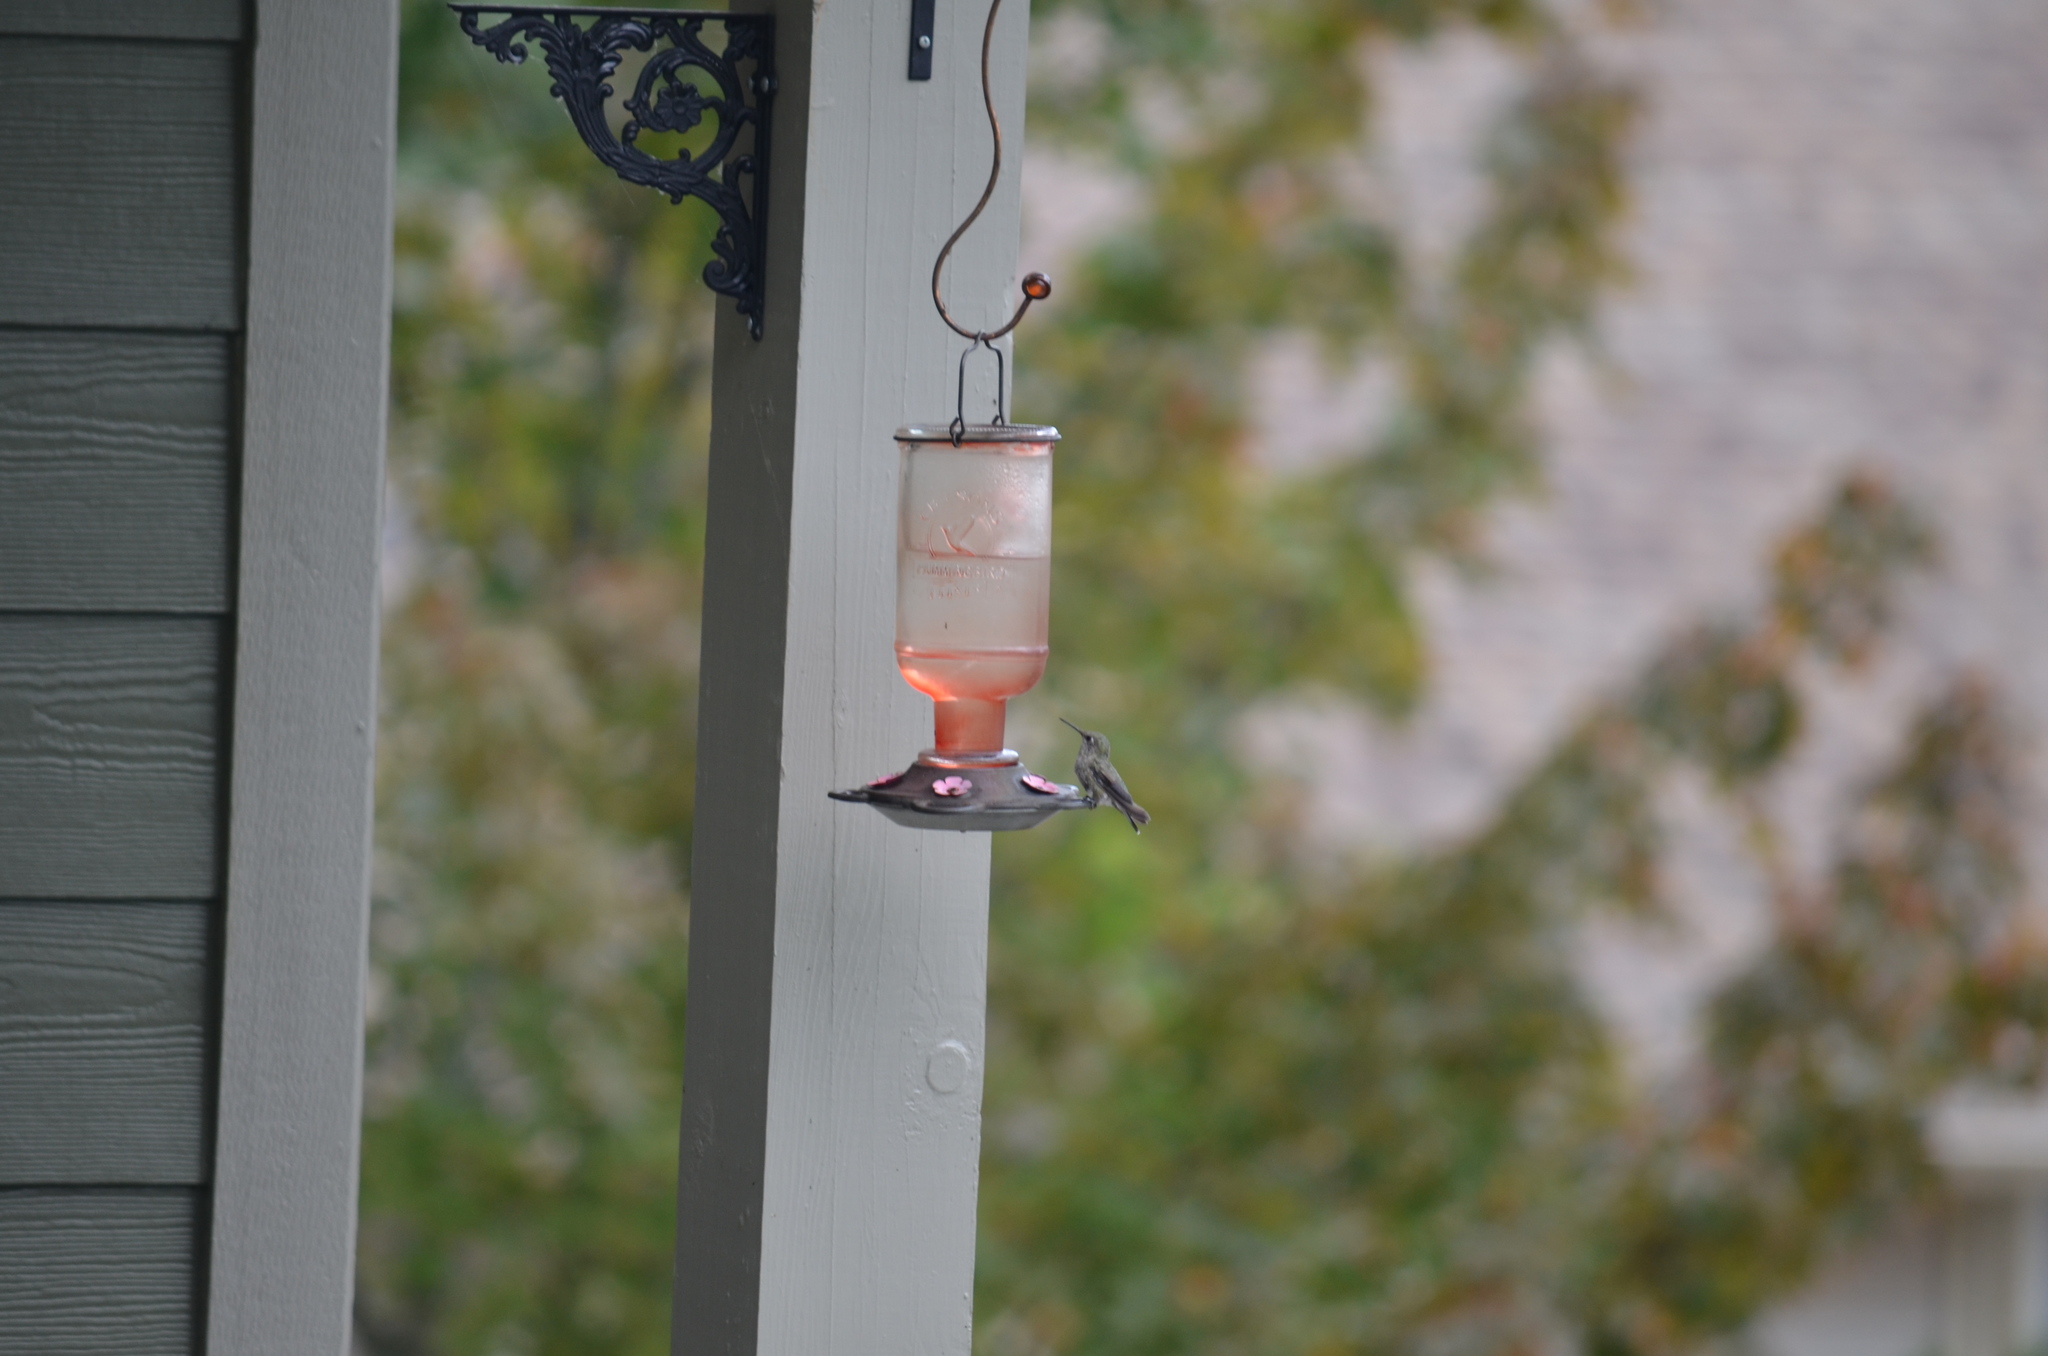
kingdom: Animalia
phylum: Chordata
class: Aves
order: Apodiformes
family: Trochilidae
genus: Calypte
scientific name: Calypte anna
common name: Anna's hummingbird
